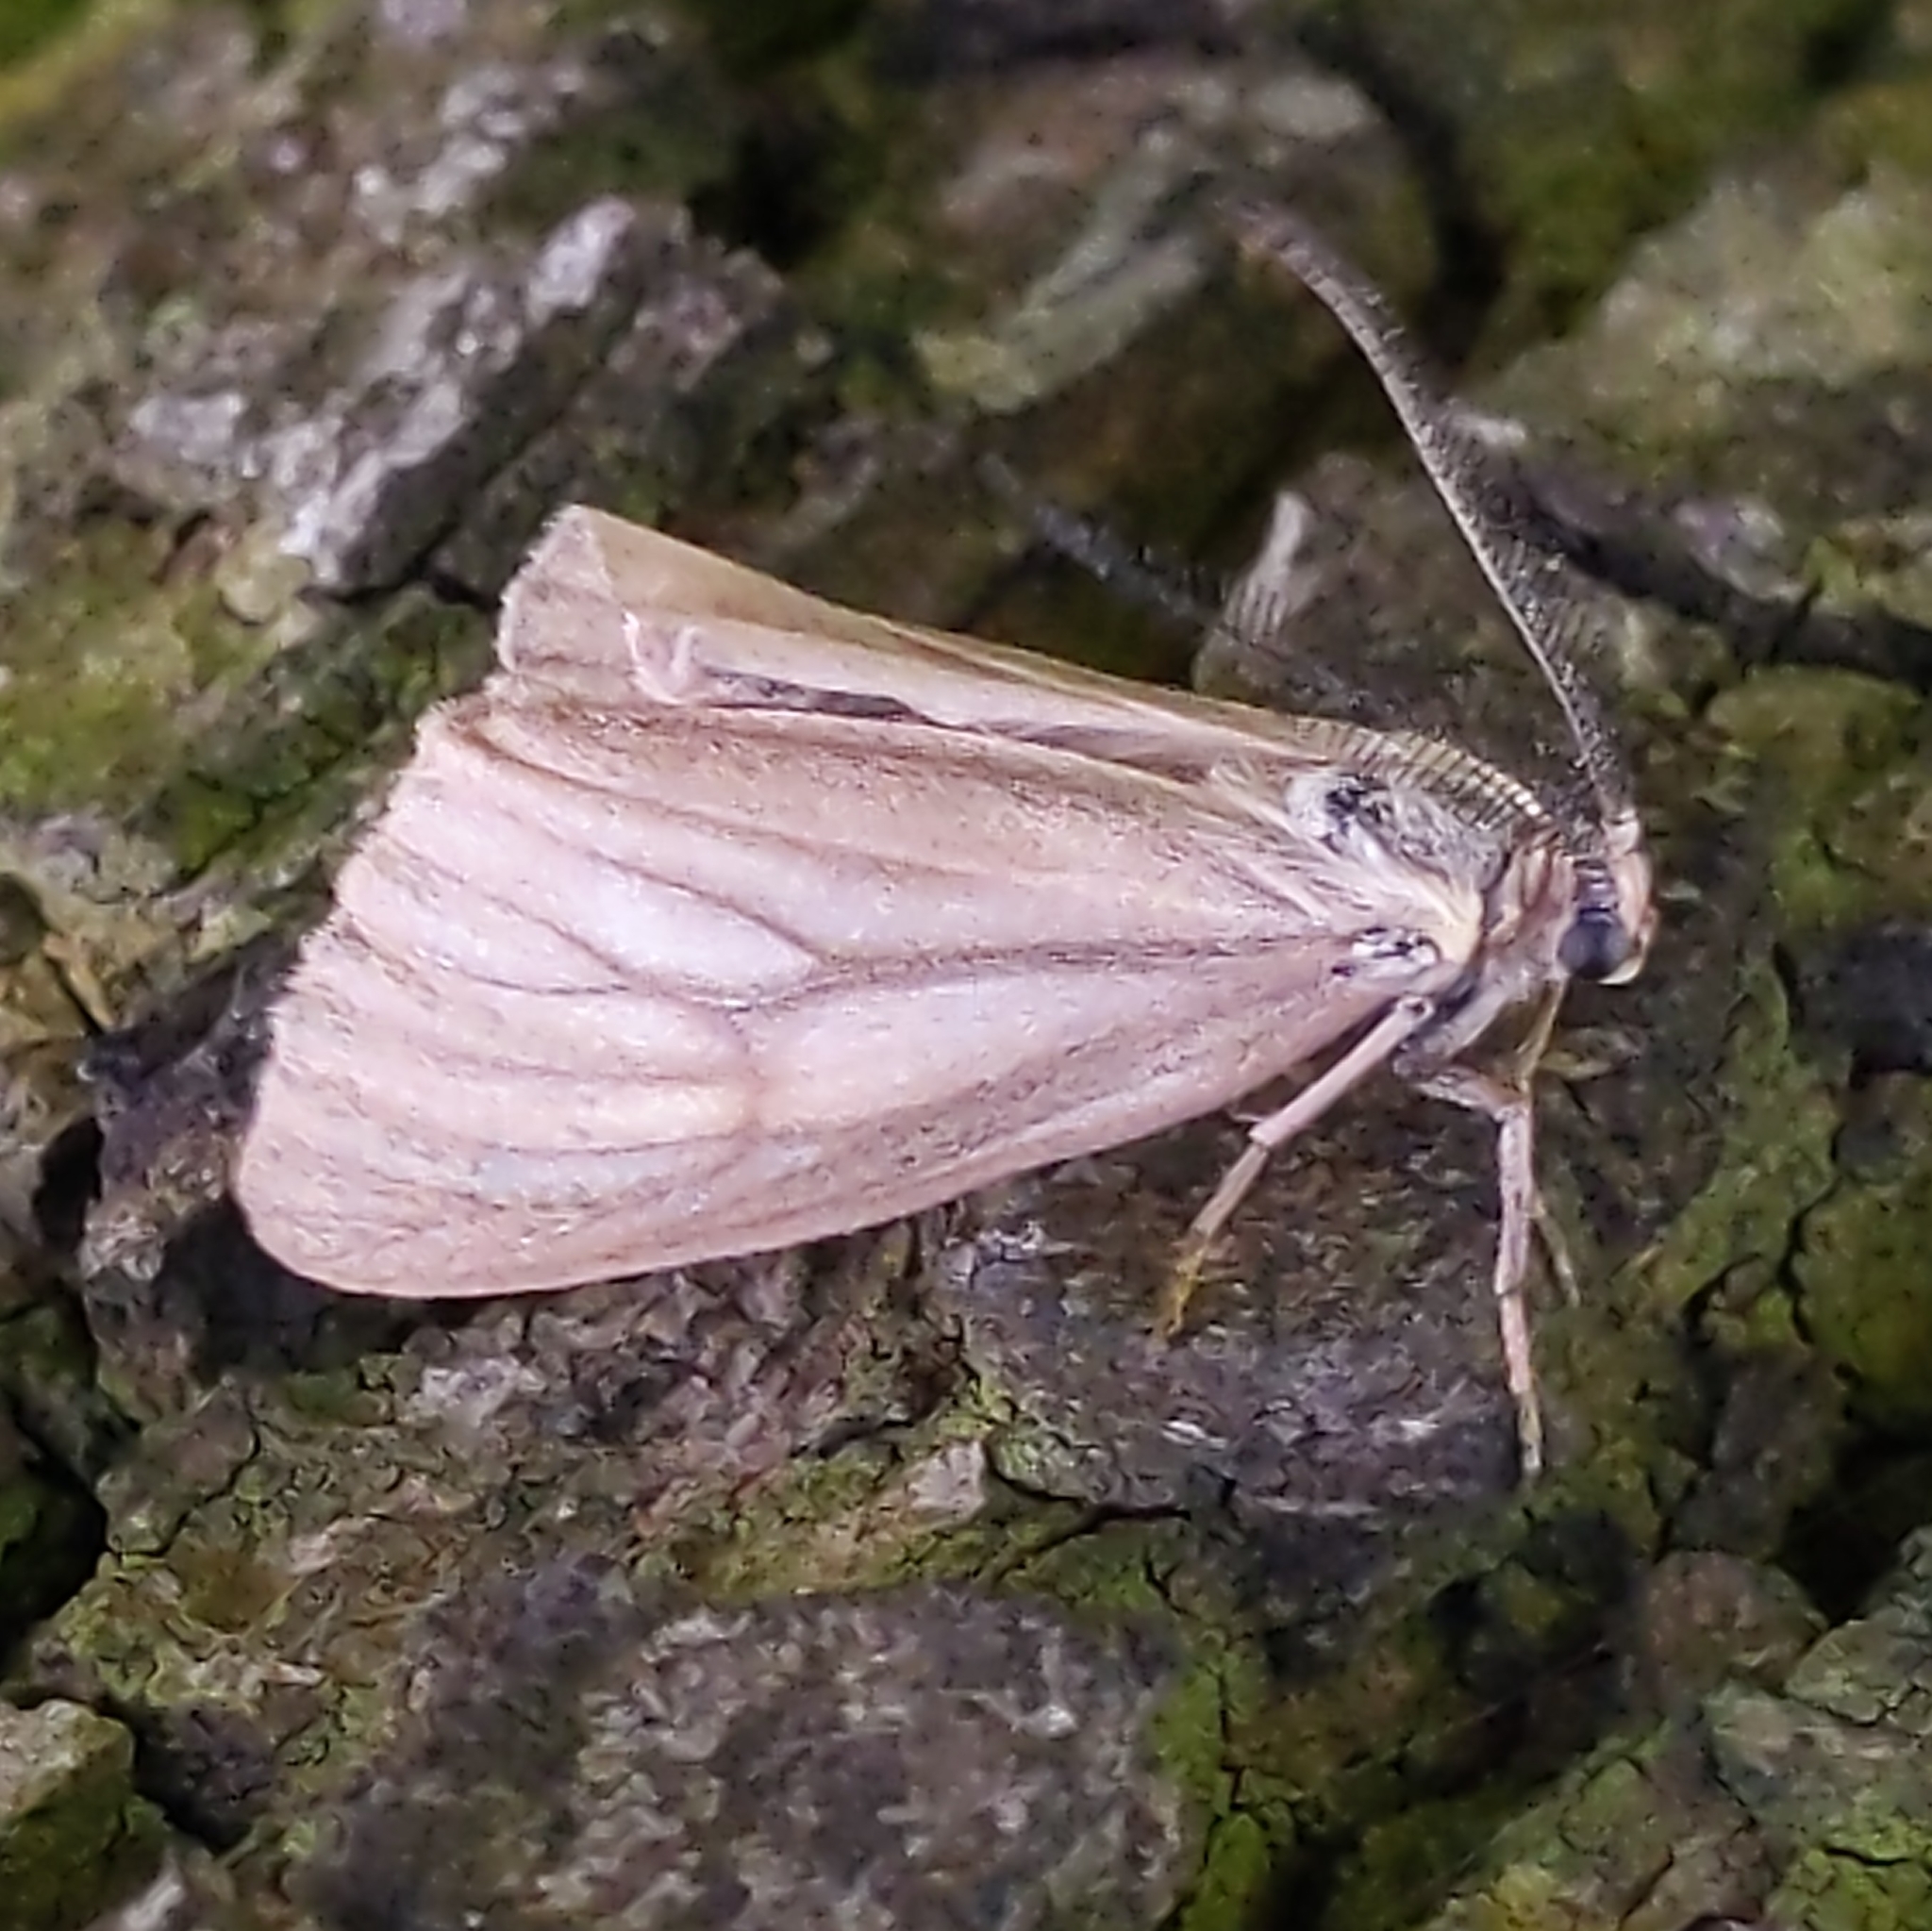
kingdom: Animalia
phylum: Arthropoda
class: Insecta
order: Lepidoptera
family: Notodontidae
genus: Phryganidia
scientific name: Phryganidia californica
